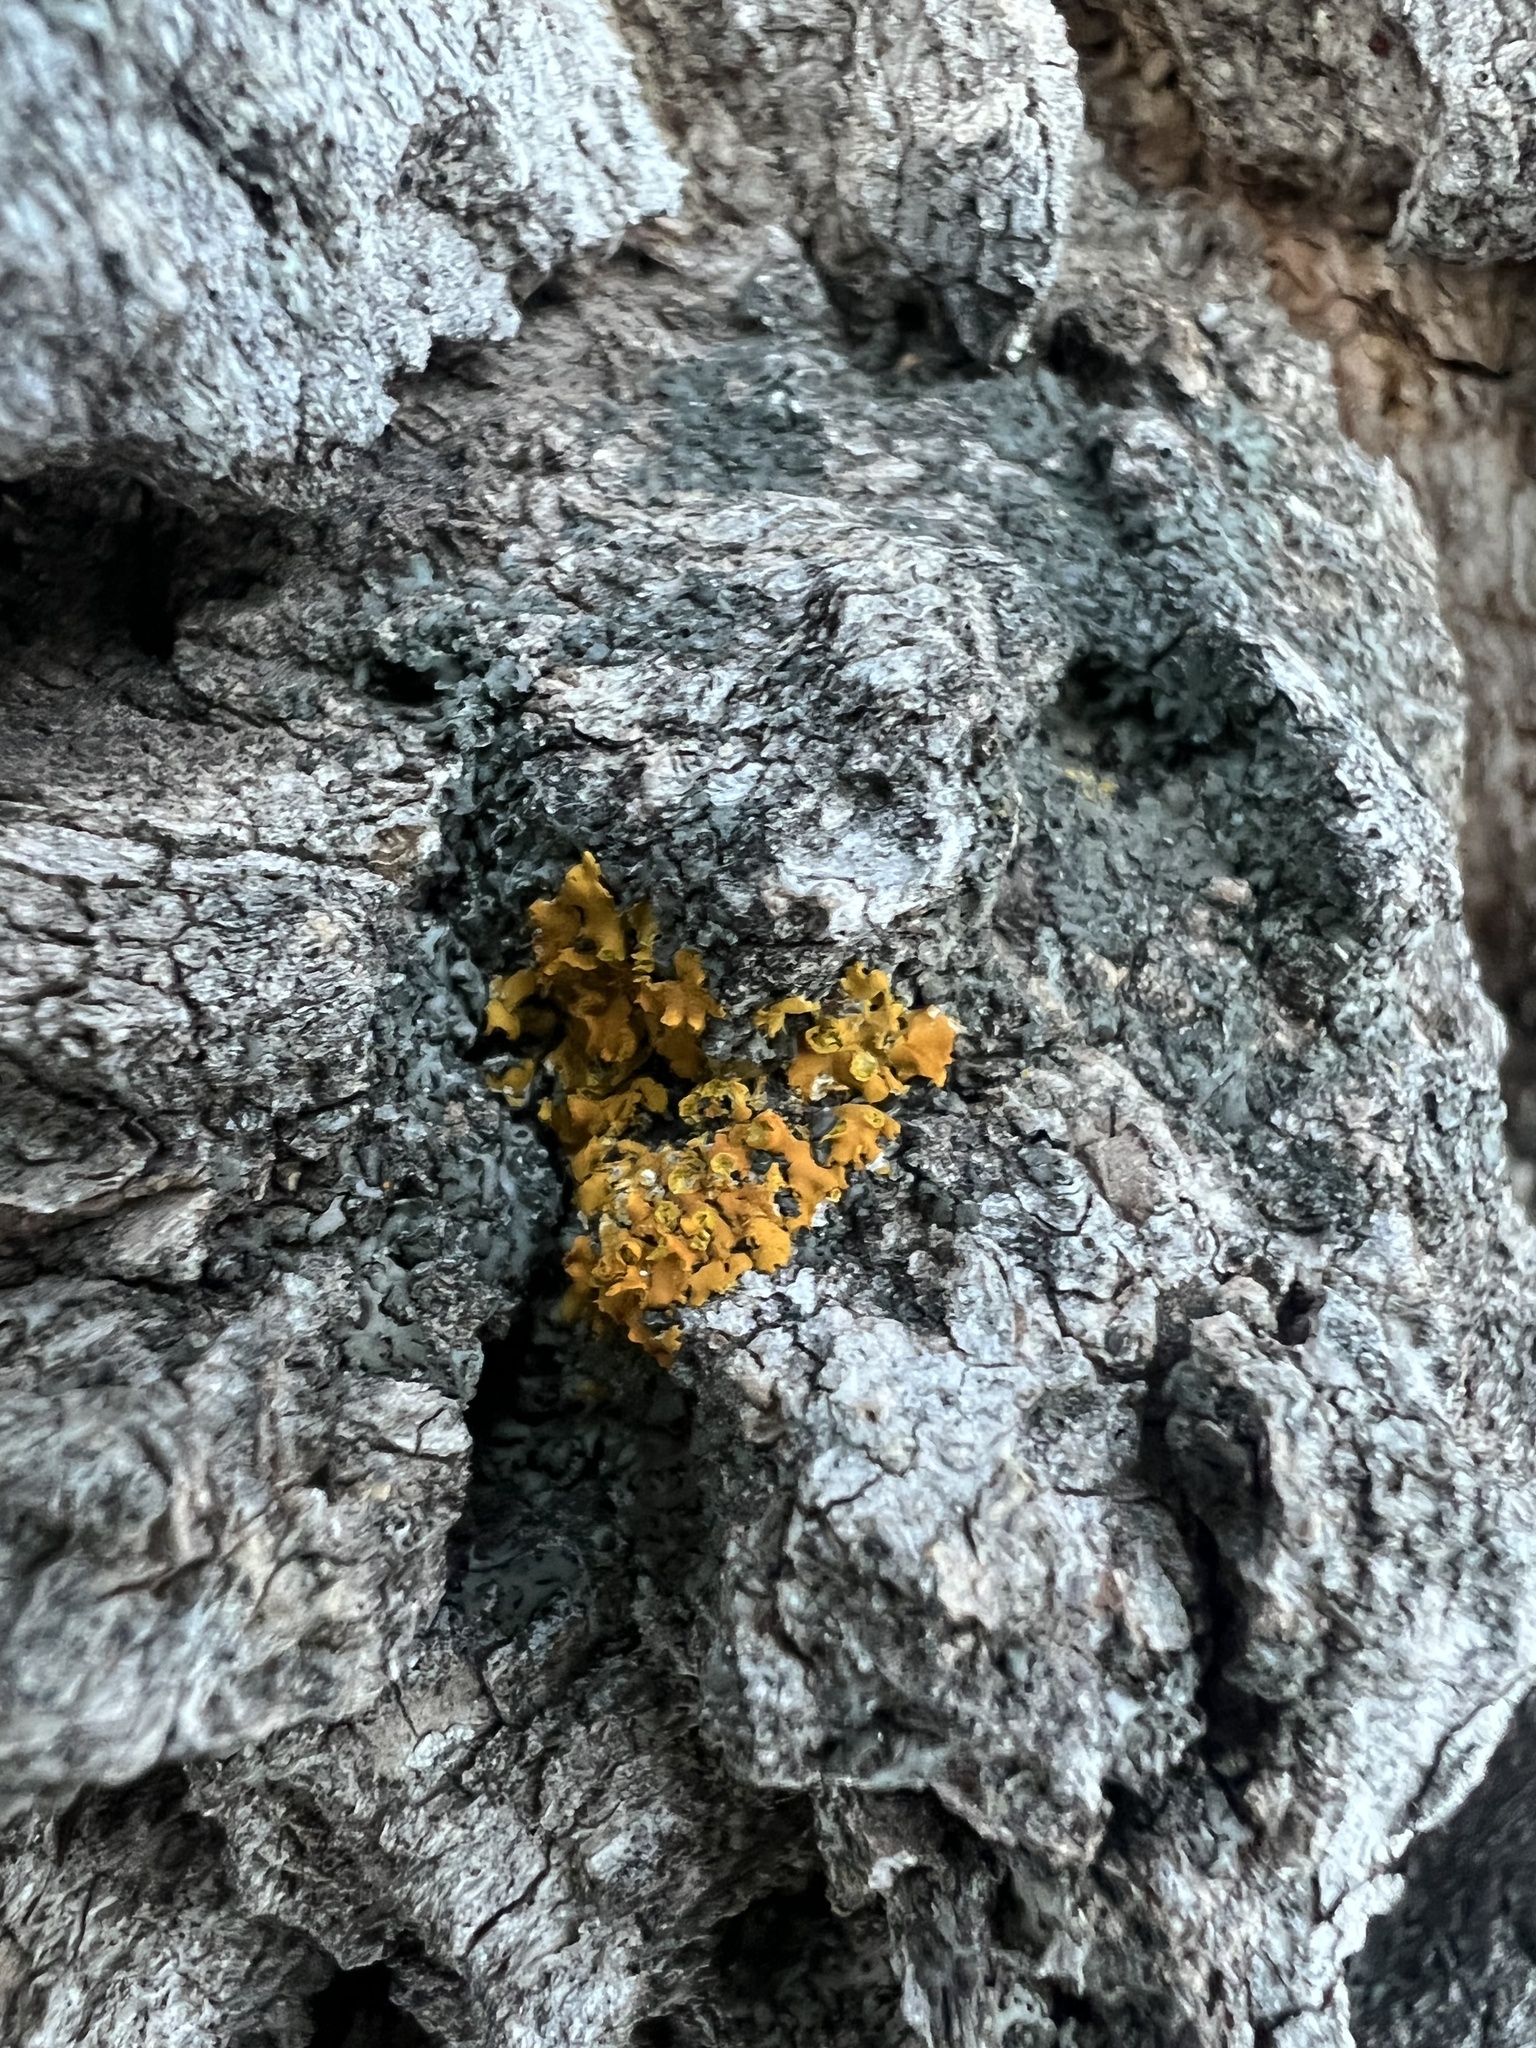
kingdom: Fungi
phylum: Ascomycota
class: Lecanoromycetes
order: Teloschistales
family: Teloschistaceae
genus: Oxneria
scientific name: Oxneria fallax
